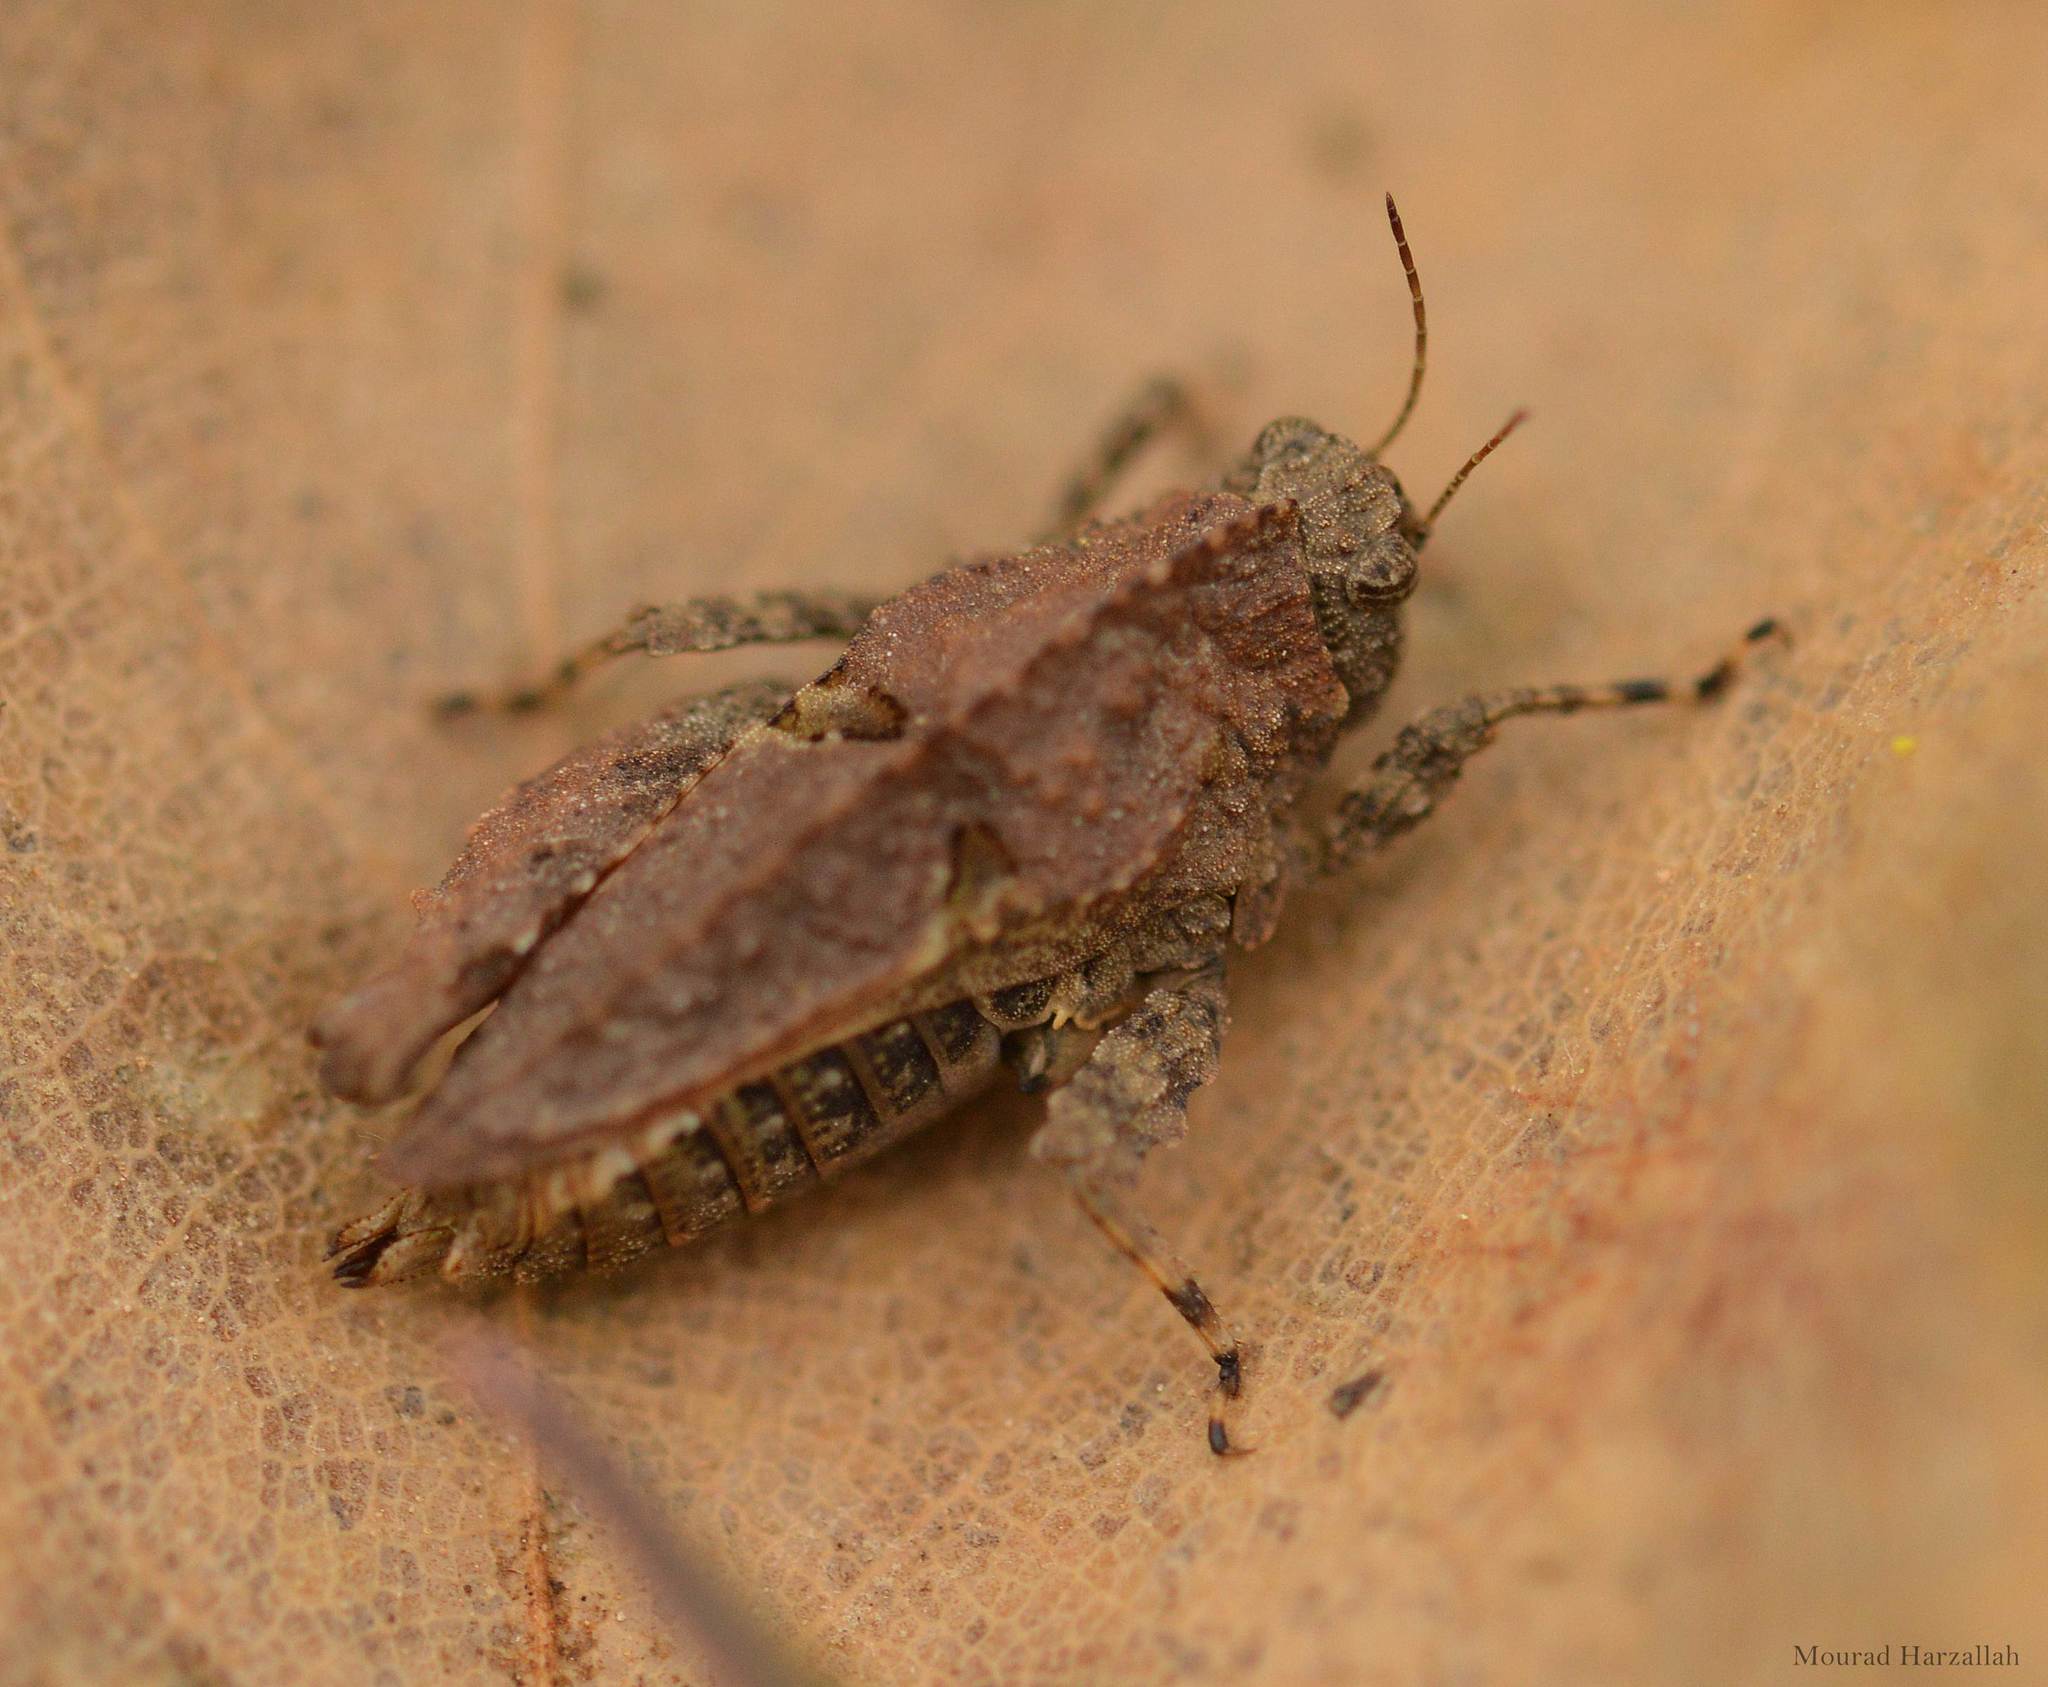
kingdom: Animalia
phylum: Arthropoda
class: Insecta
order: Orthoptera
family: Tetrigidae
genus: Tetrix
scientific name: Tetrix nodulosa
